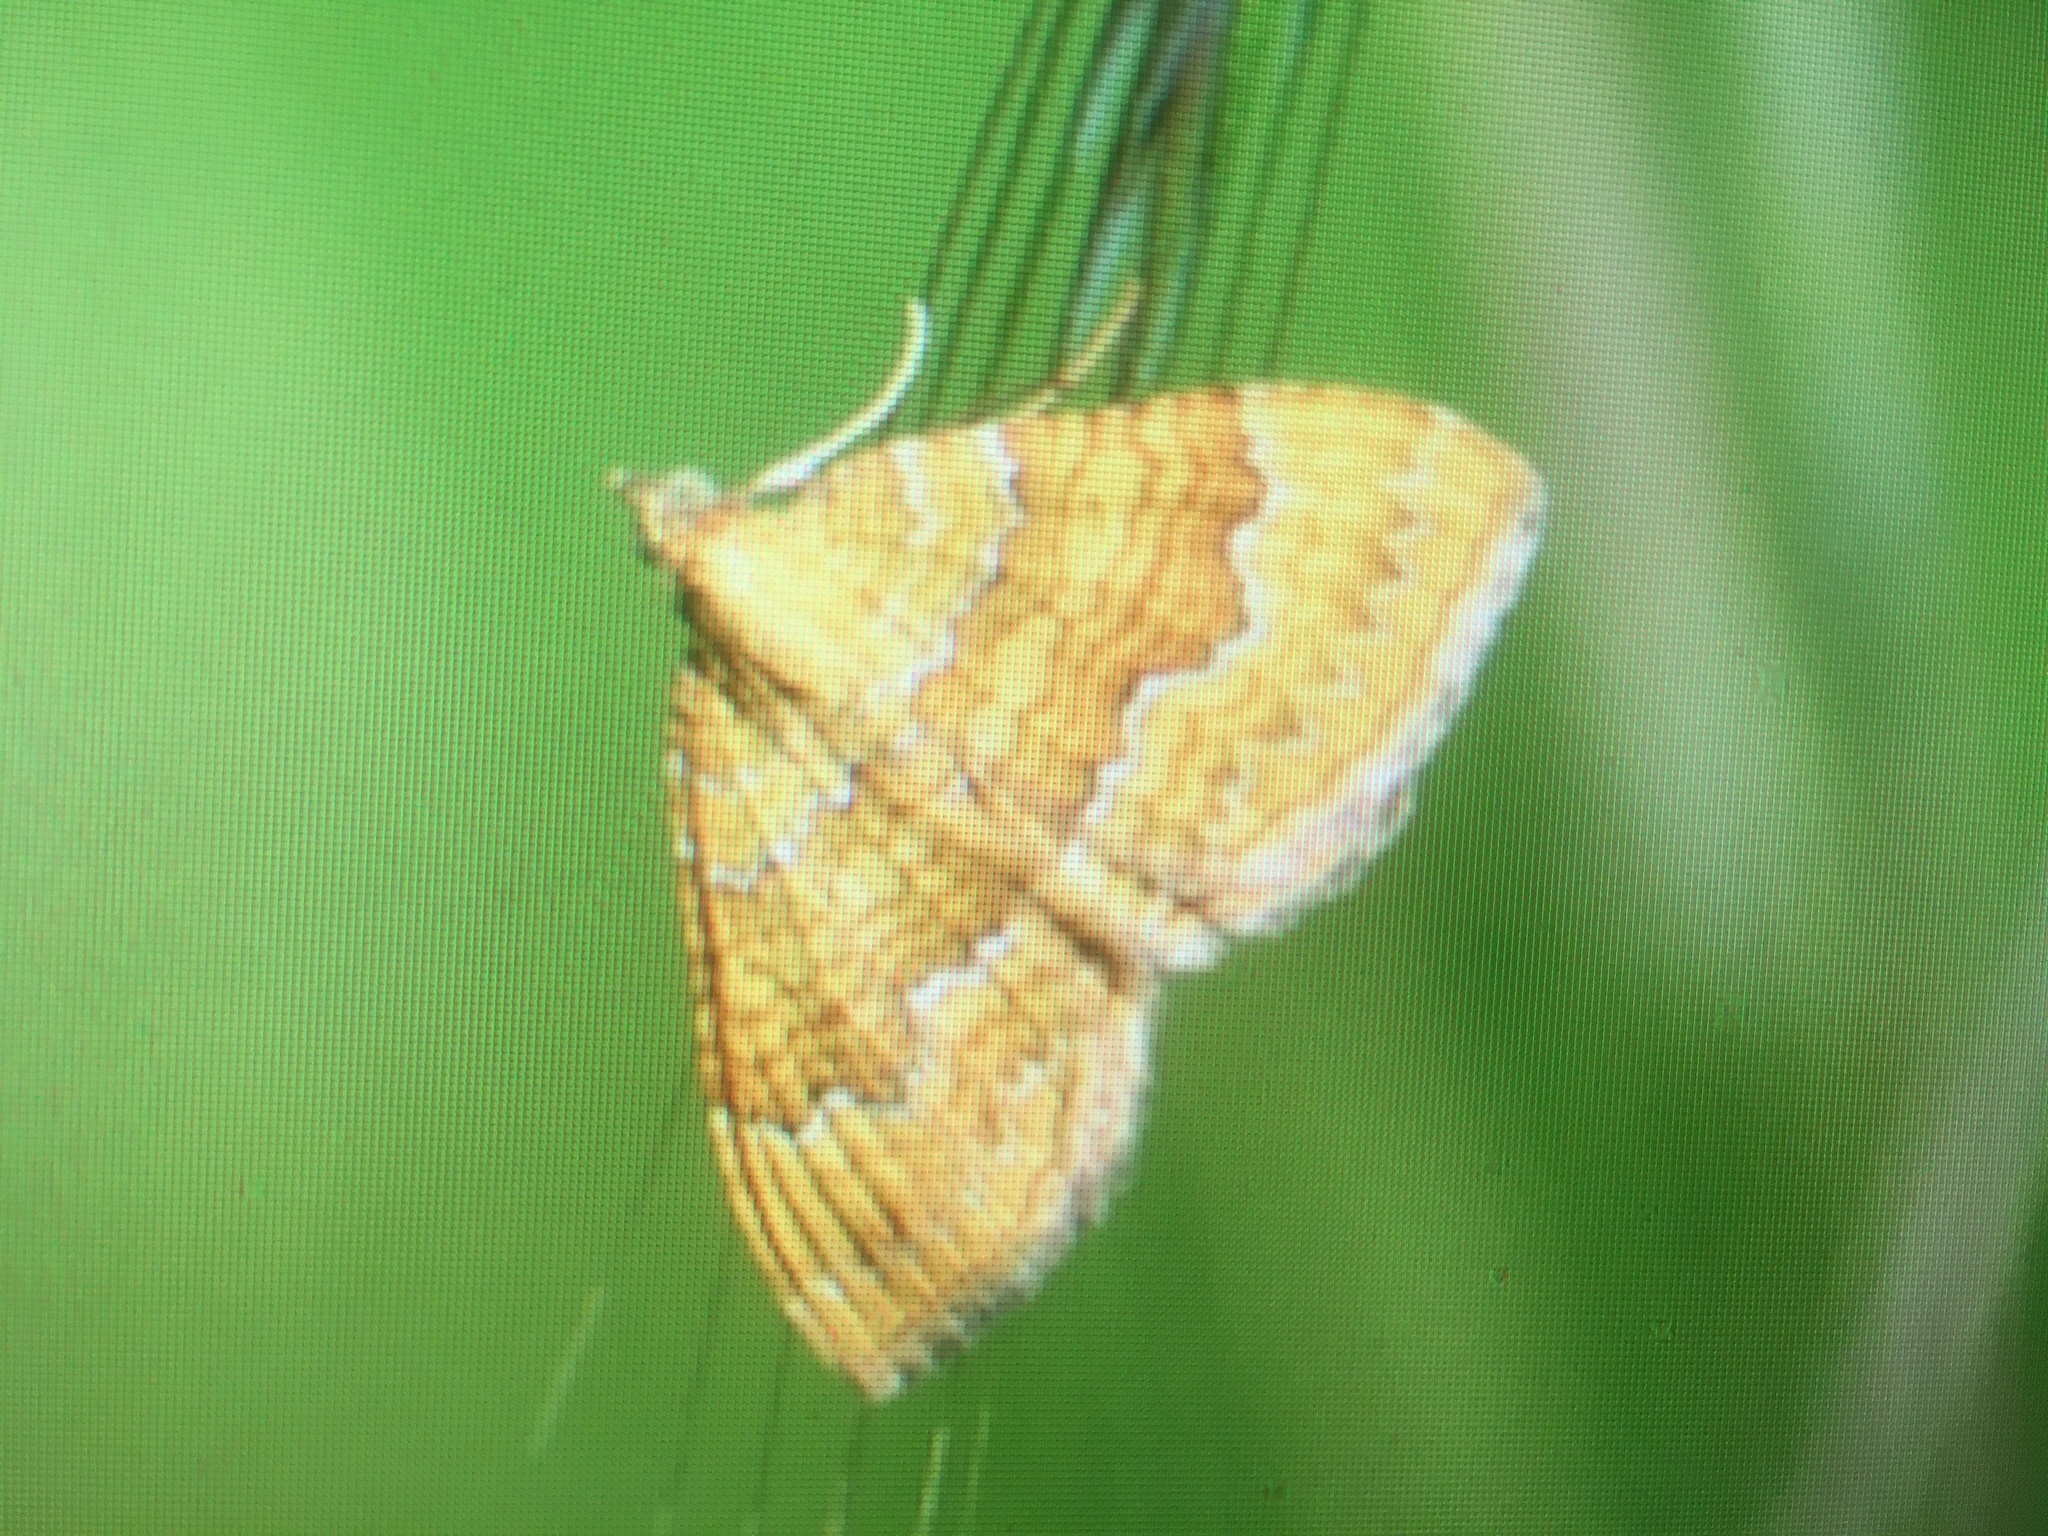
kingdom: Animalia
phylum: Arthropoda
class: Insecta
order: Lepidoptera
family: Geometridae
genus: Camptogramma
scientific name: Camptogramma bilineata
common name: Yellow shell
